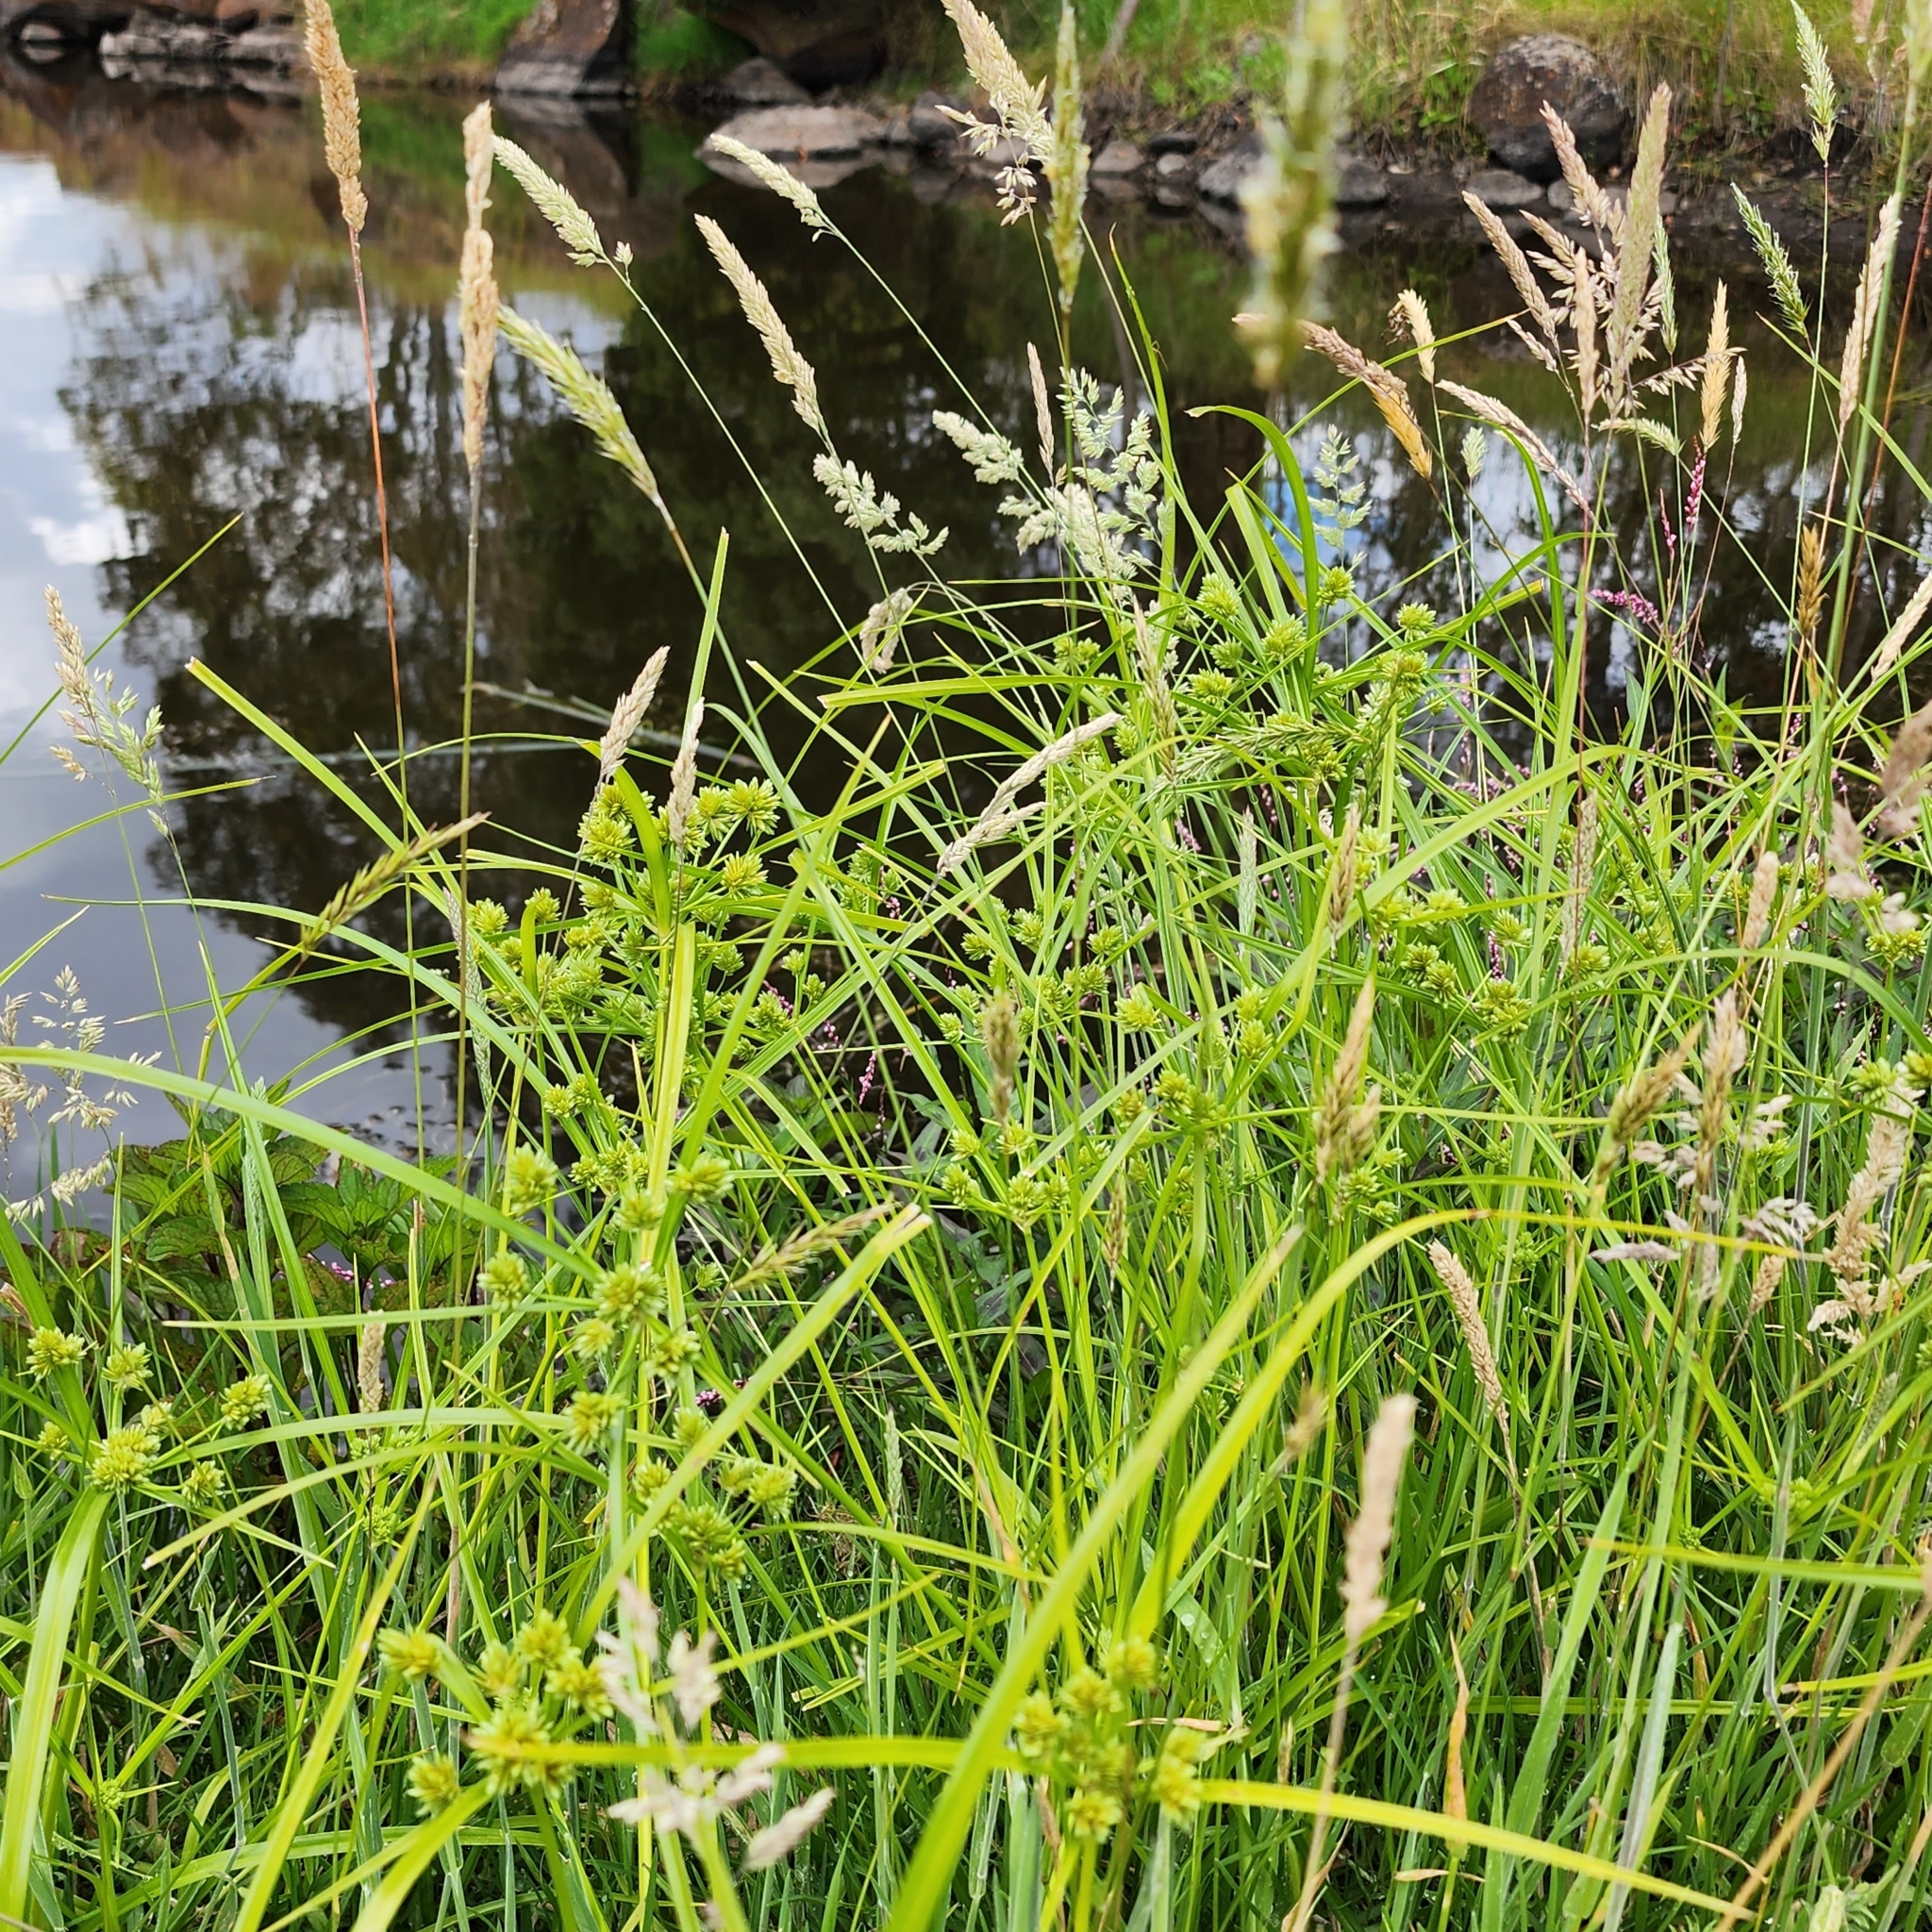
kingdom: Plantae
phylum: Tracheophyta
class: Liliopsida
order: Poales
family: Cyperaceae
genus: Cyperus
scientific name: Cyperus eragrostis
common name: Tall flatsedge
